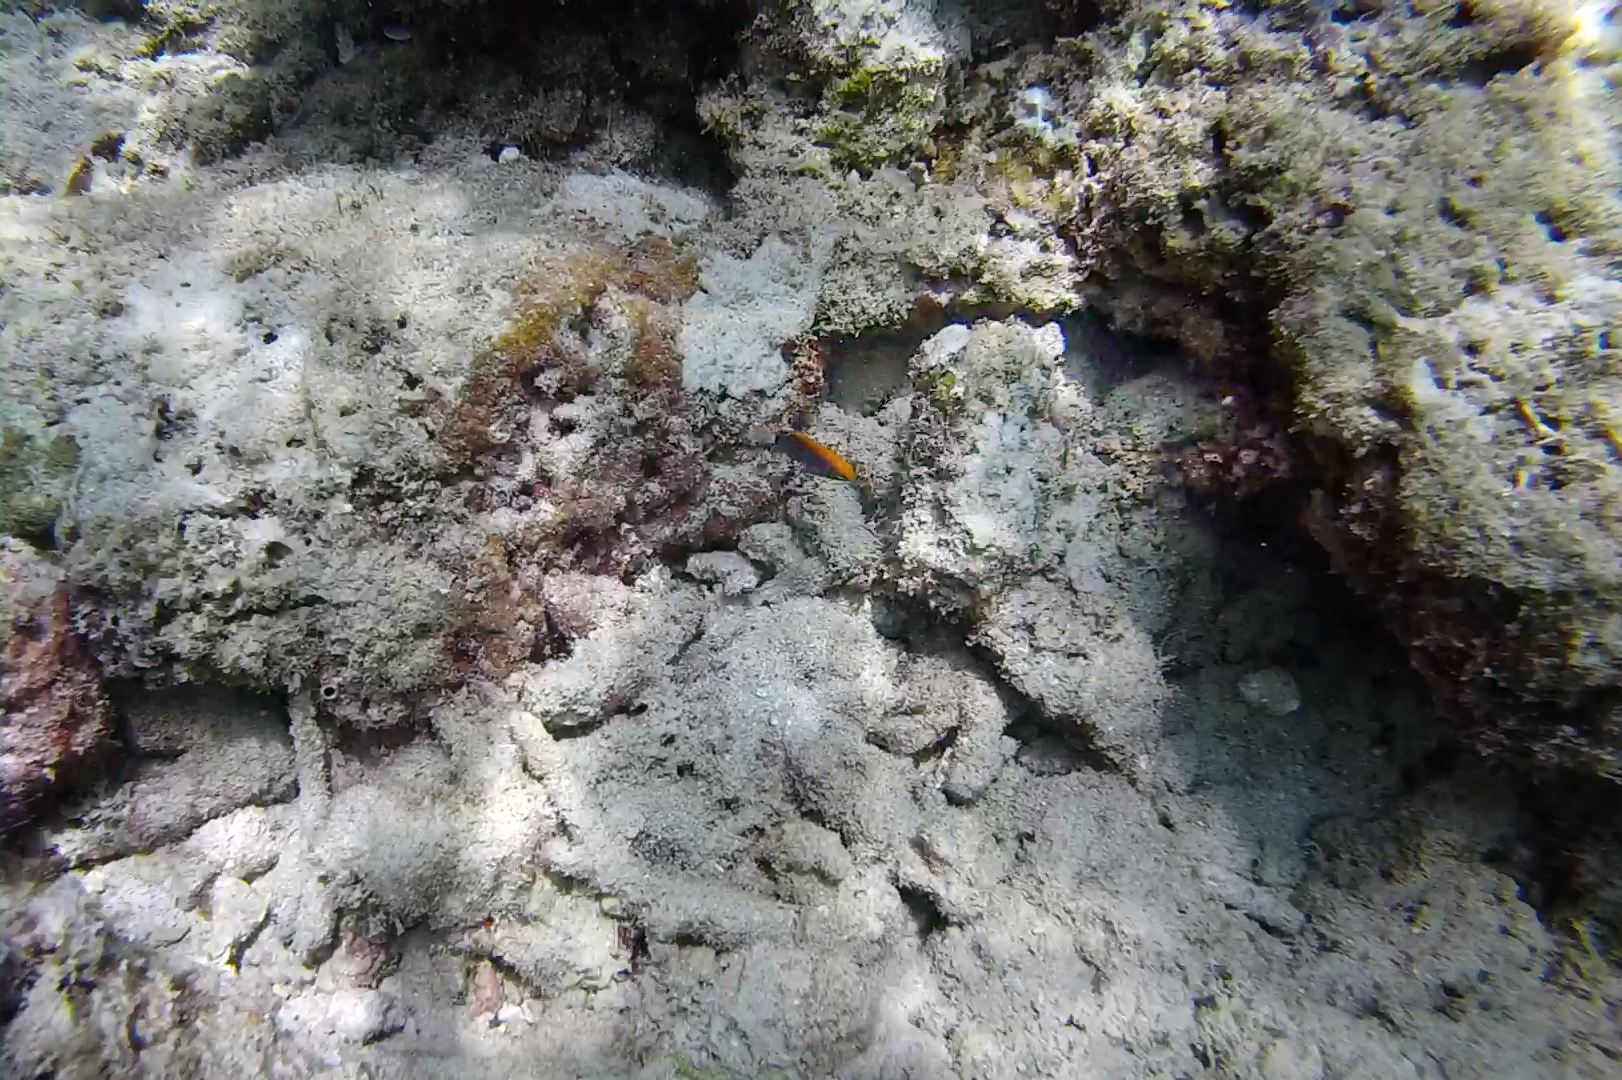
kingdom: Animalia
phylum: Chordata
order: Perciformes
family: Pomacentridae
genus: Pomacentrus
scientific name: Pomacentrus chrysurus
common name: White-tail damsel
